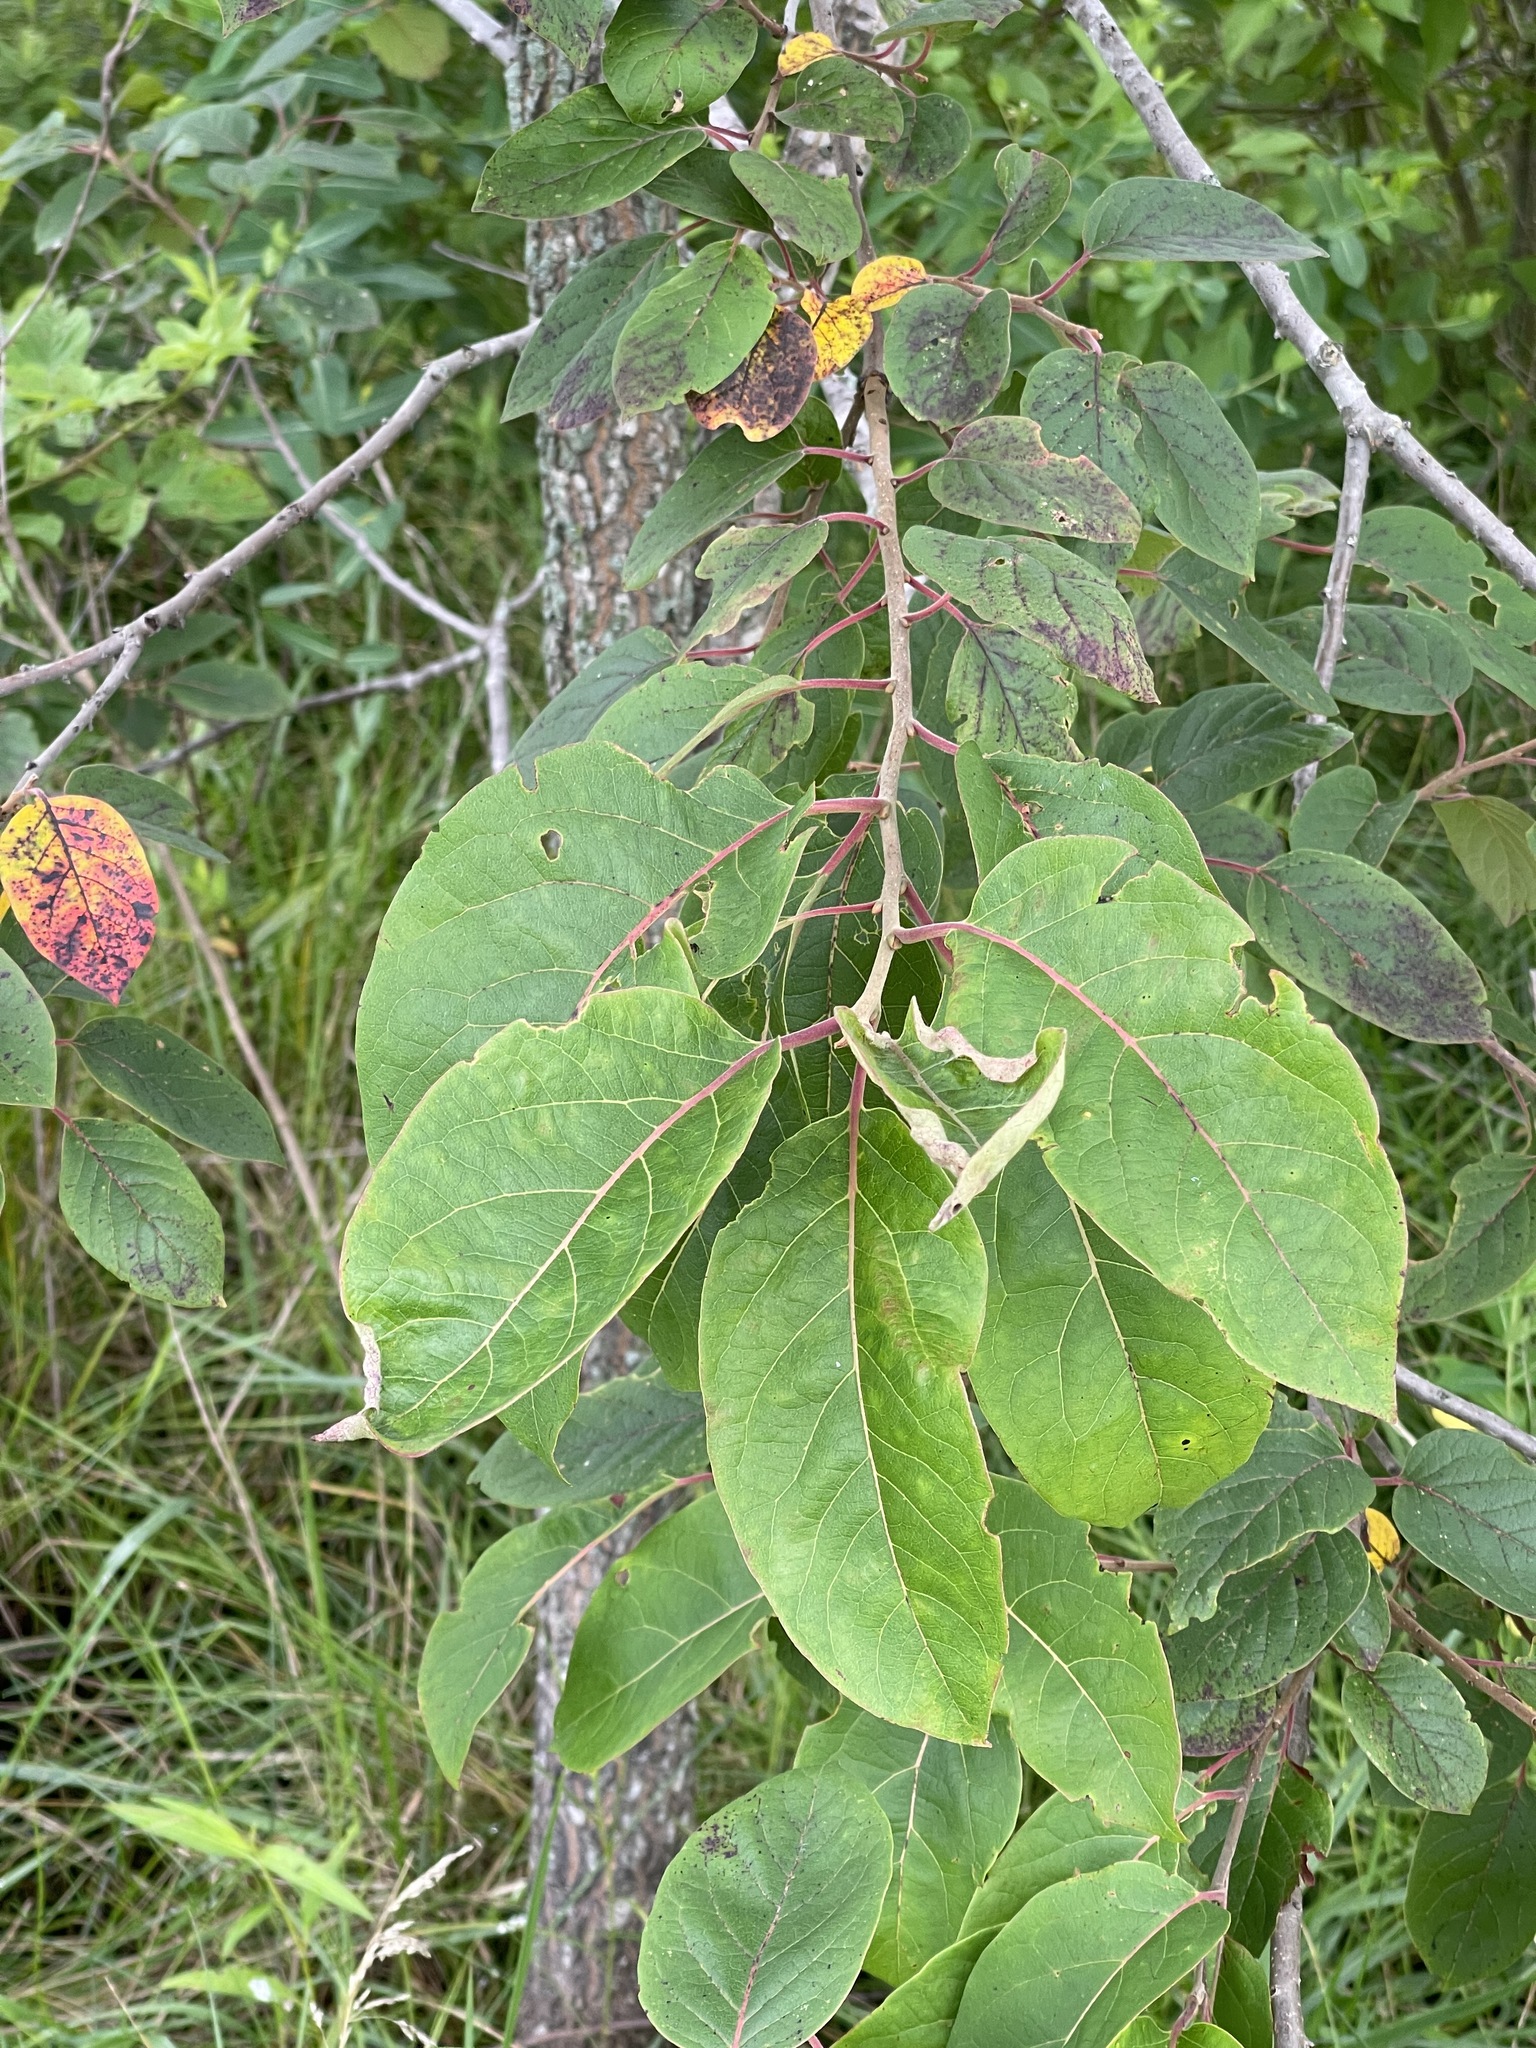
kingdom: Plantae
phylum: Tracheophyta
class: Magnoliopsida
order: Ericales
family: Ebenaceae
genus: Diospyros
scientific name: Diospyros virginiana
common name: Persimmon
